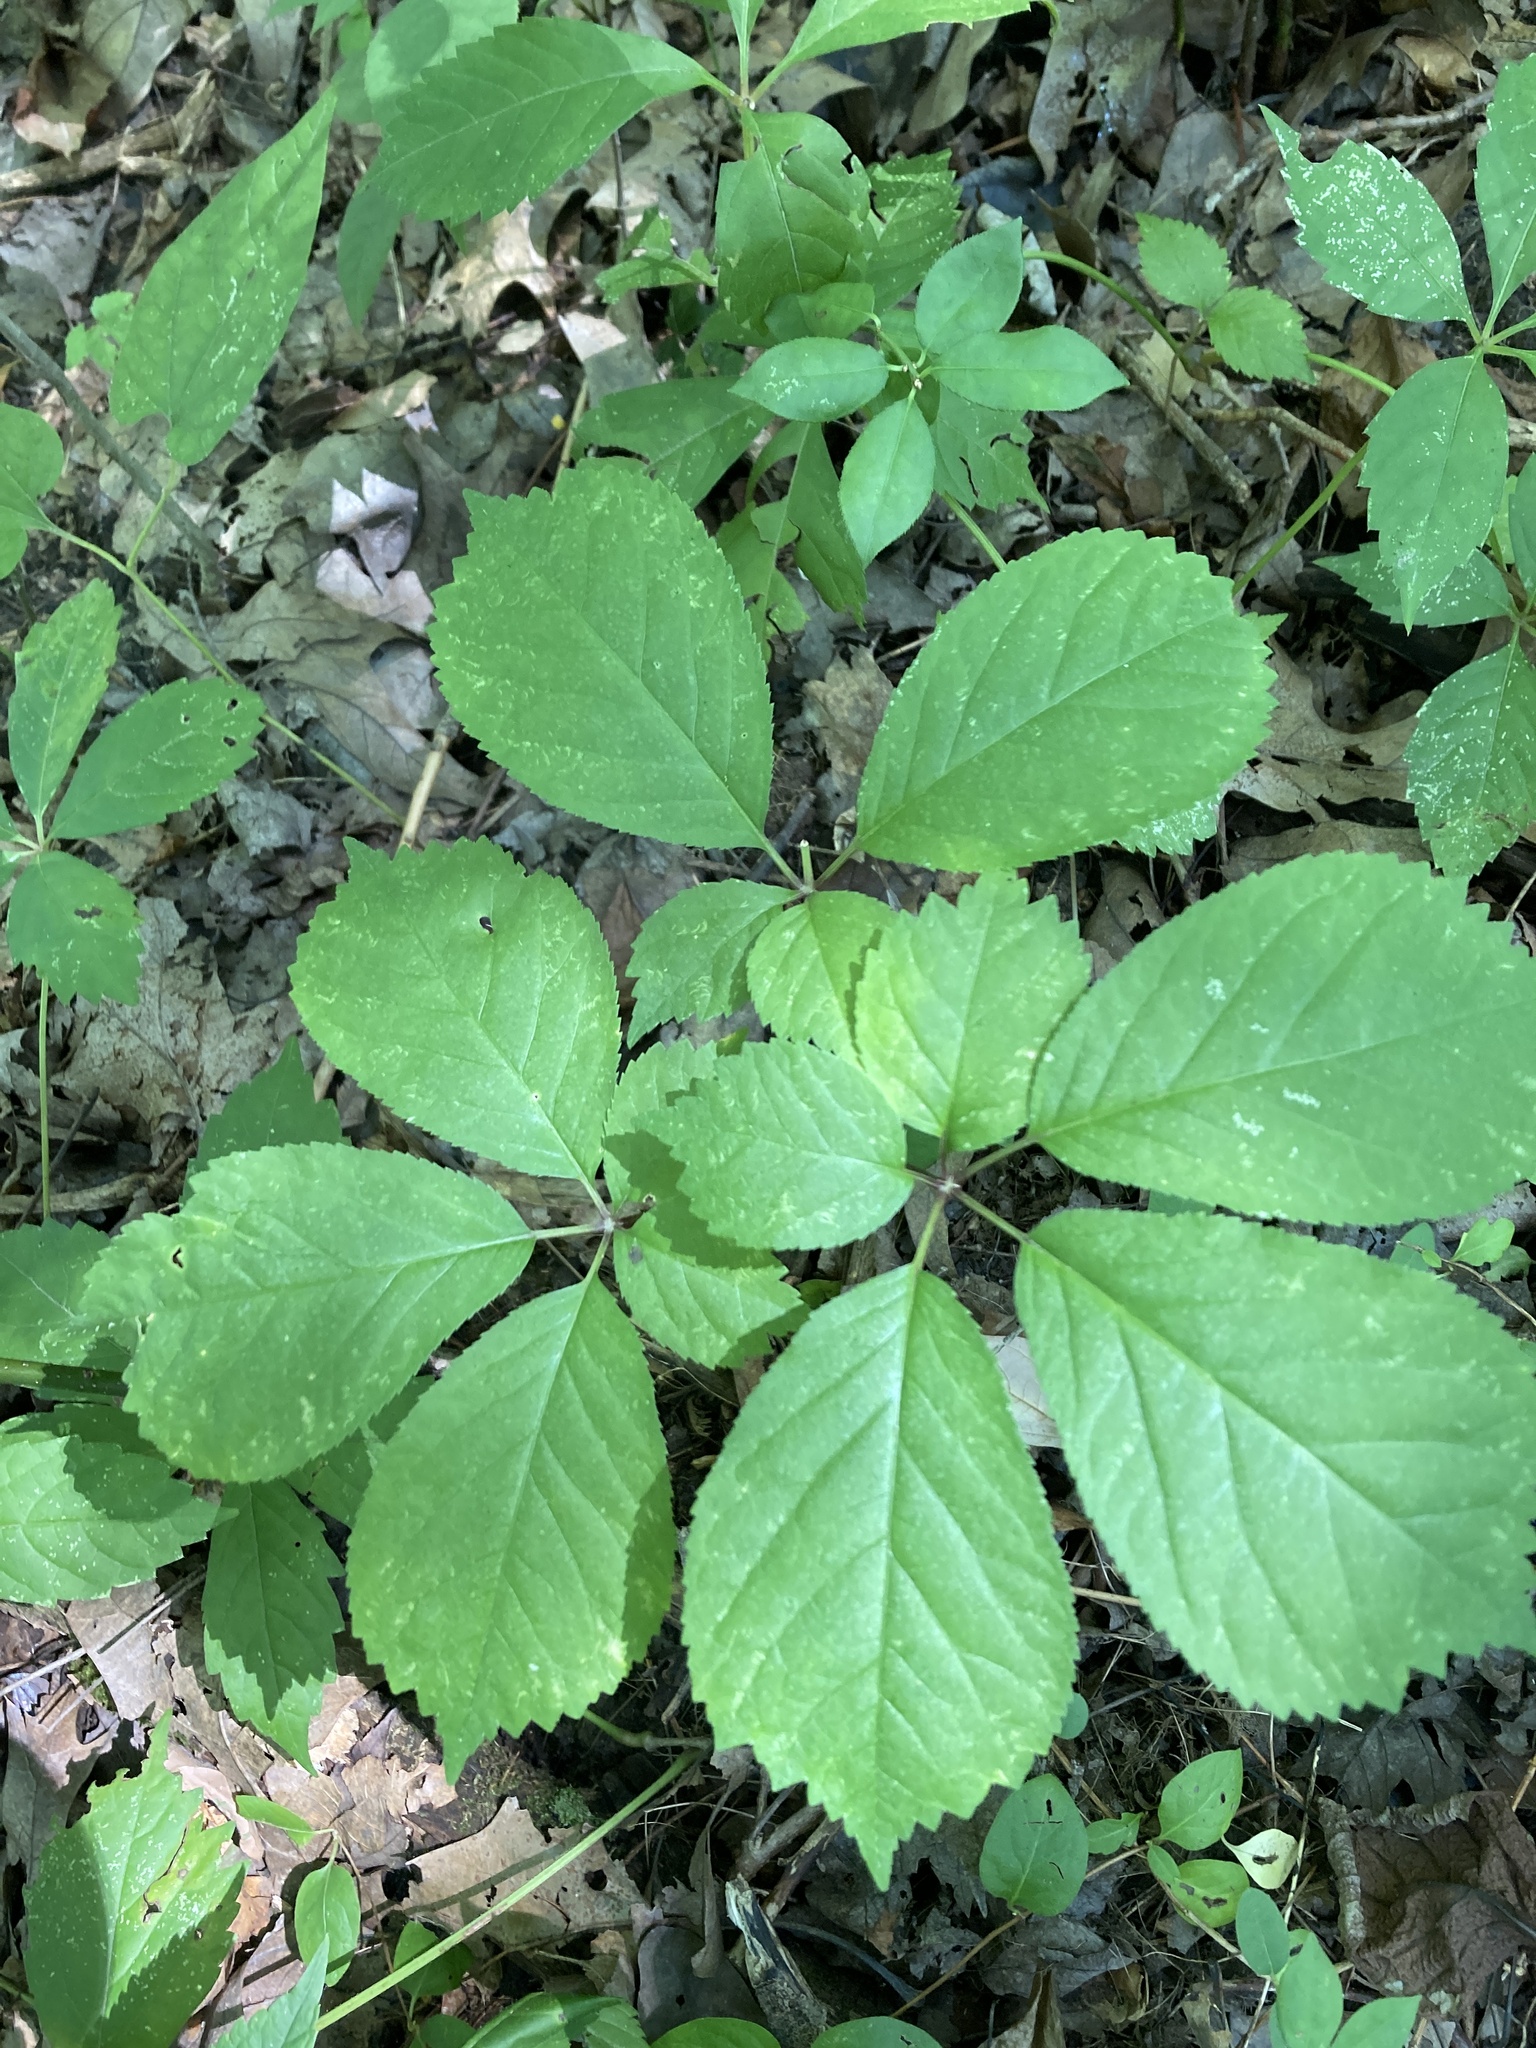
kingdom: Plantae
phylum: Tracheophyta
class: Magnoliopsida
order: Apiales
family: Araliaceae
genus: Panax
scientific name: Panax quinquefolius
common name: American ginseng
